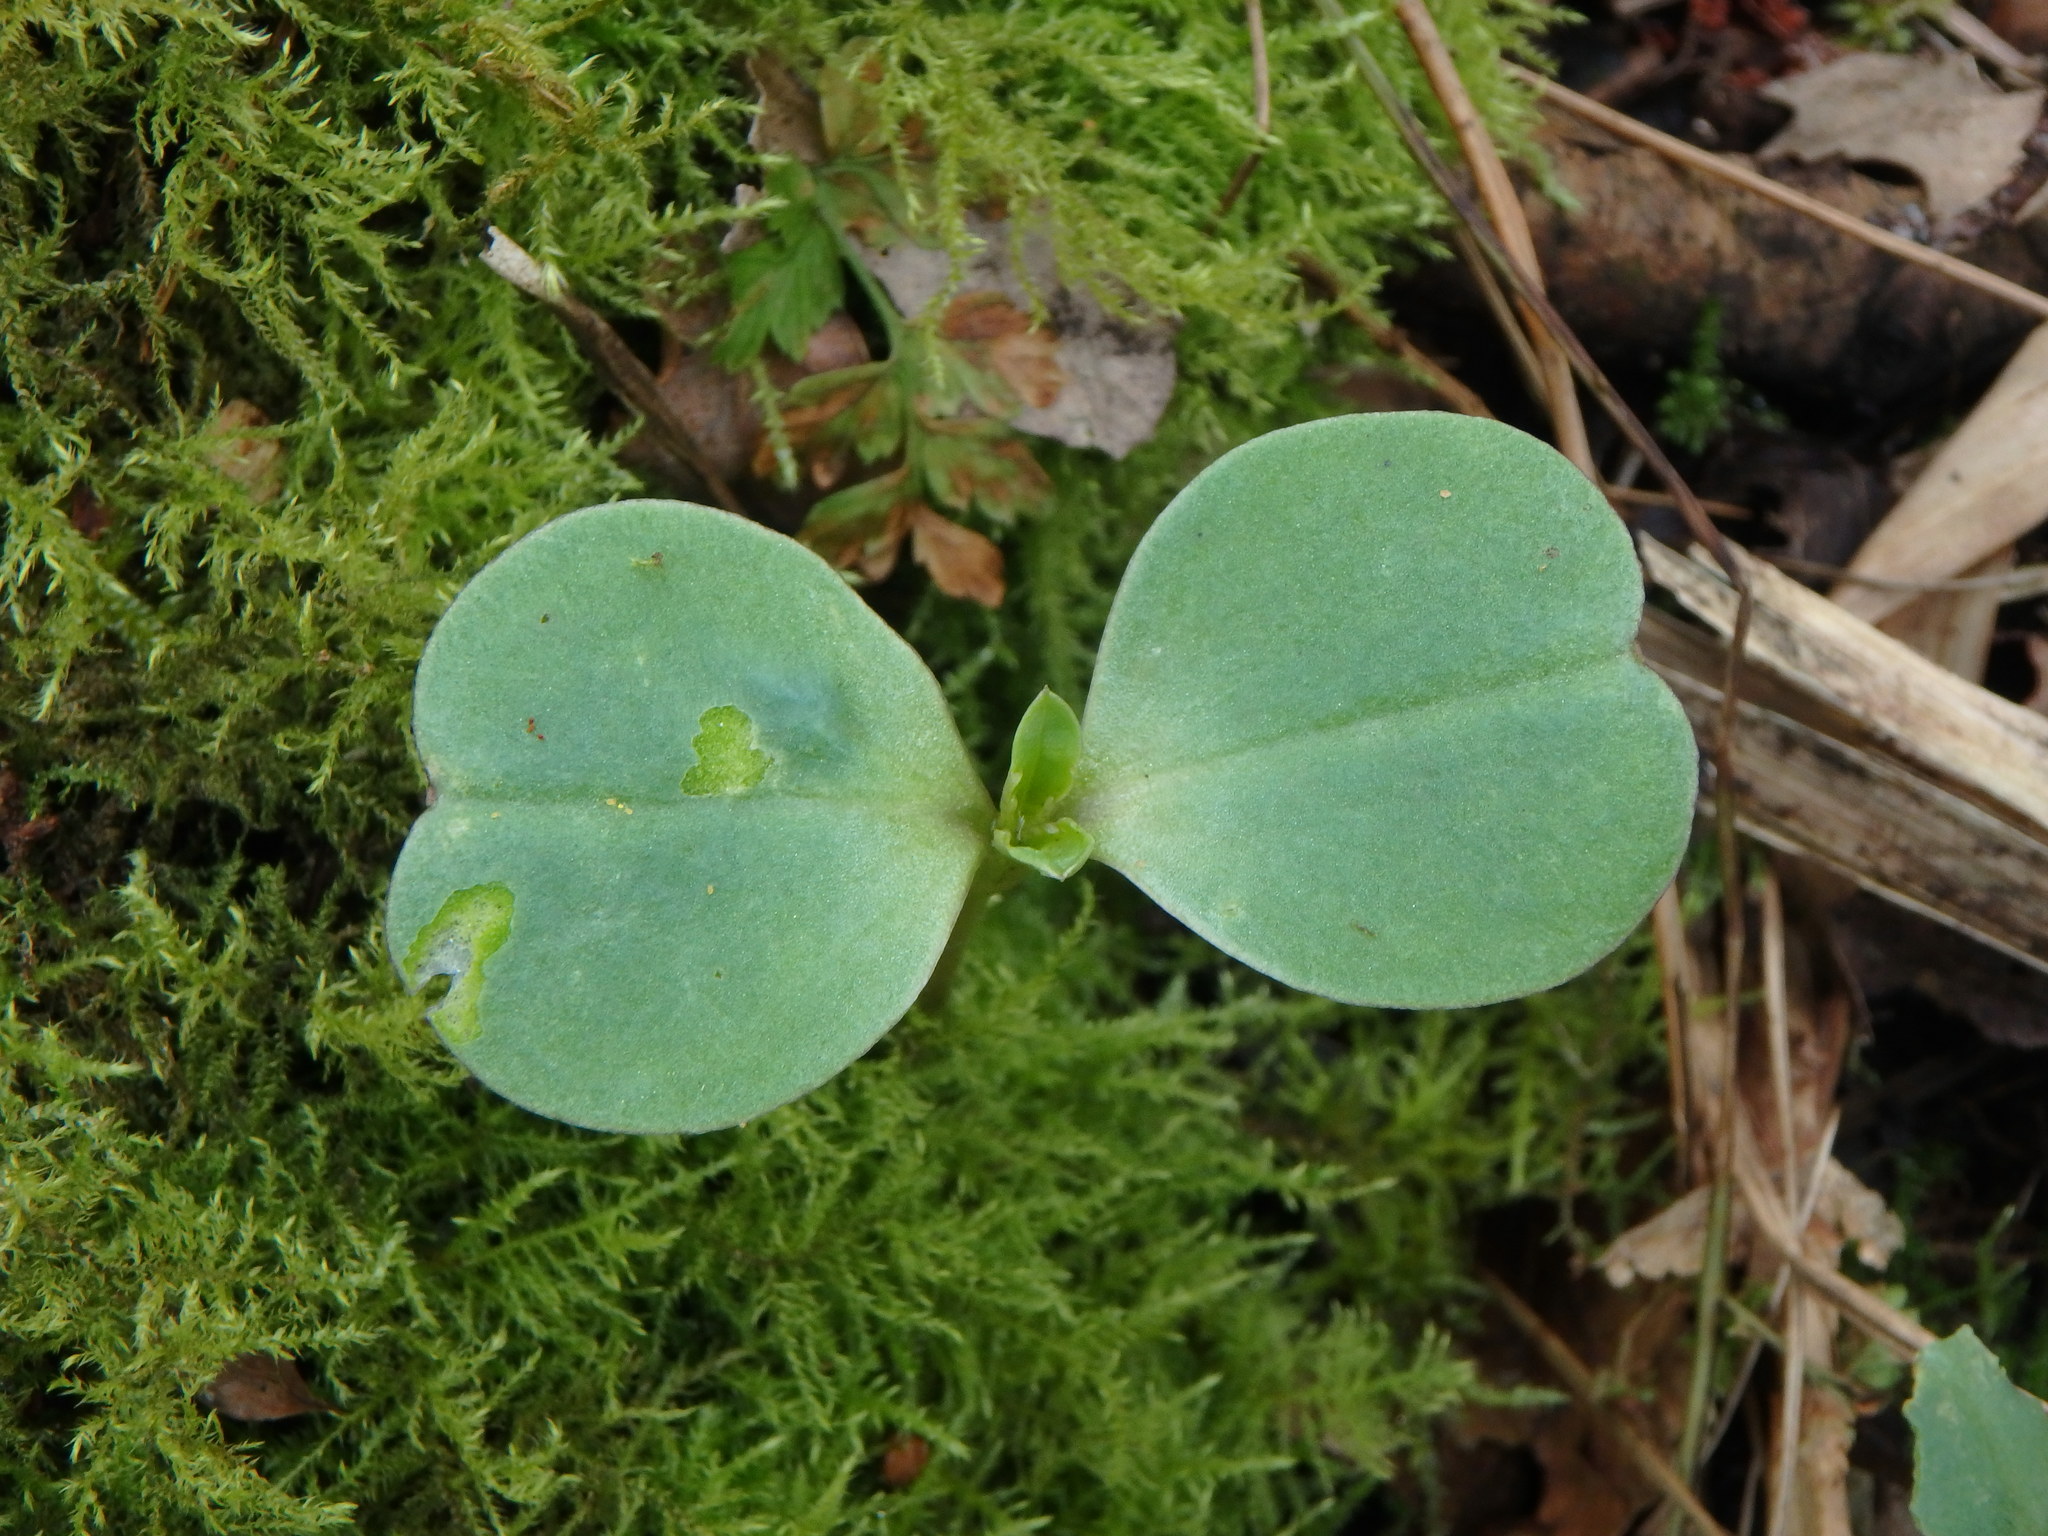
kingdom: Plantae
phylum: Tracheophyta
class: Magnoliopsida
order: Ericales
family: Balsaminaceae
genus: Impatiens
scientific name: Impatiens glandulifera
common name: Himalayan balsam
